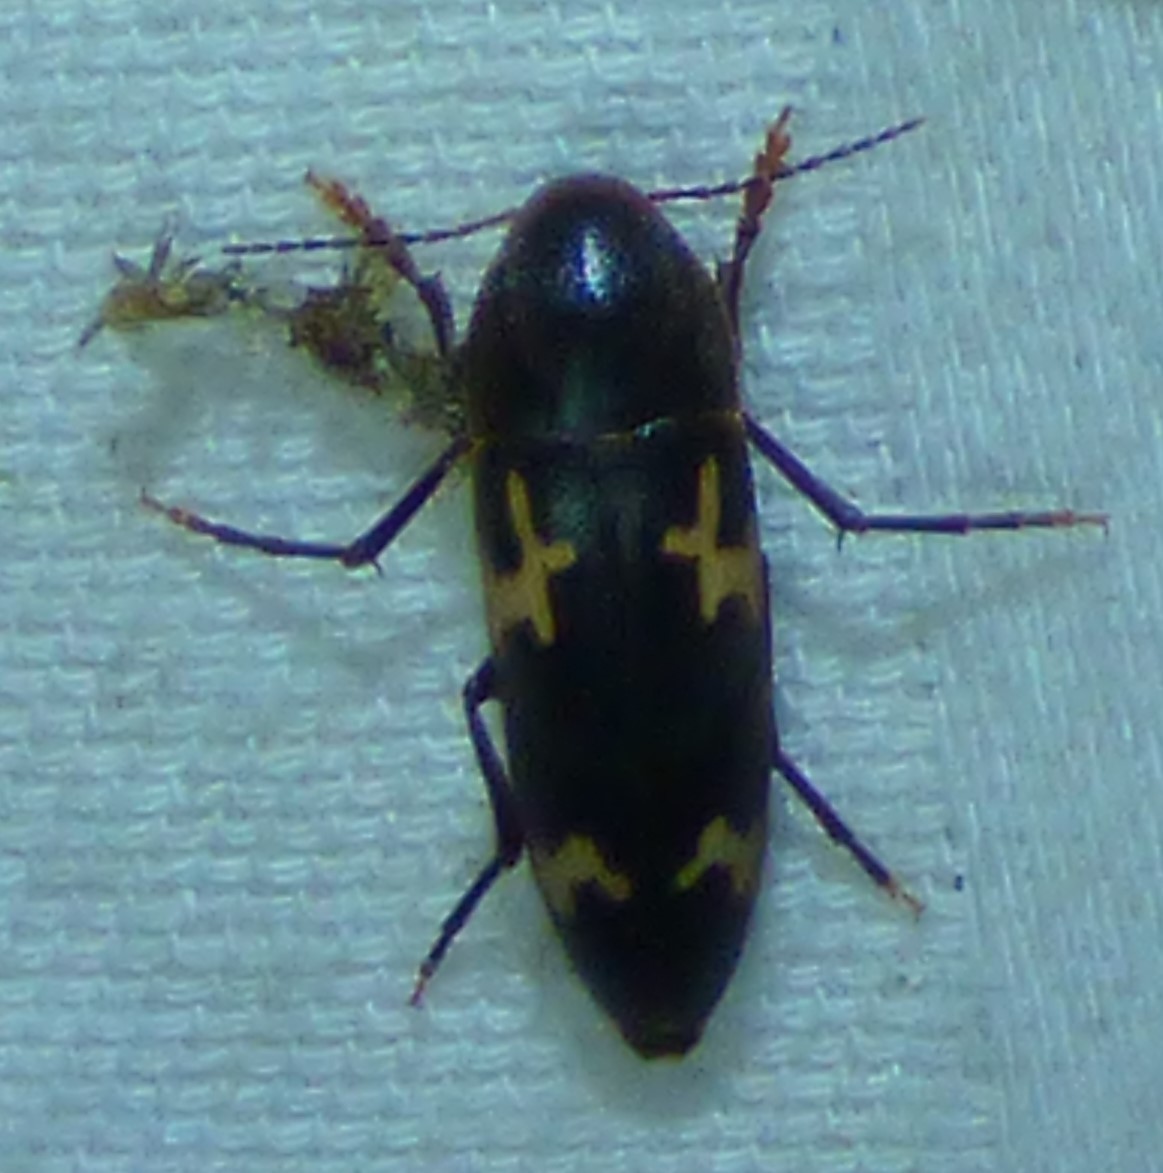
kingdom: Animalia
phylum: Arthropoda
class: Insecta
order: Coleoptera
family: Melandryidae
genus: Dircaea
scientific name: Dircaea liturata
